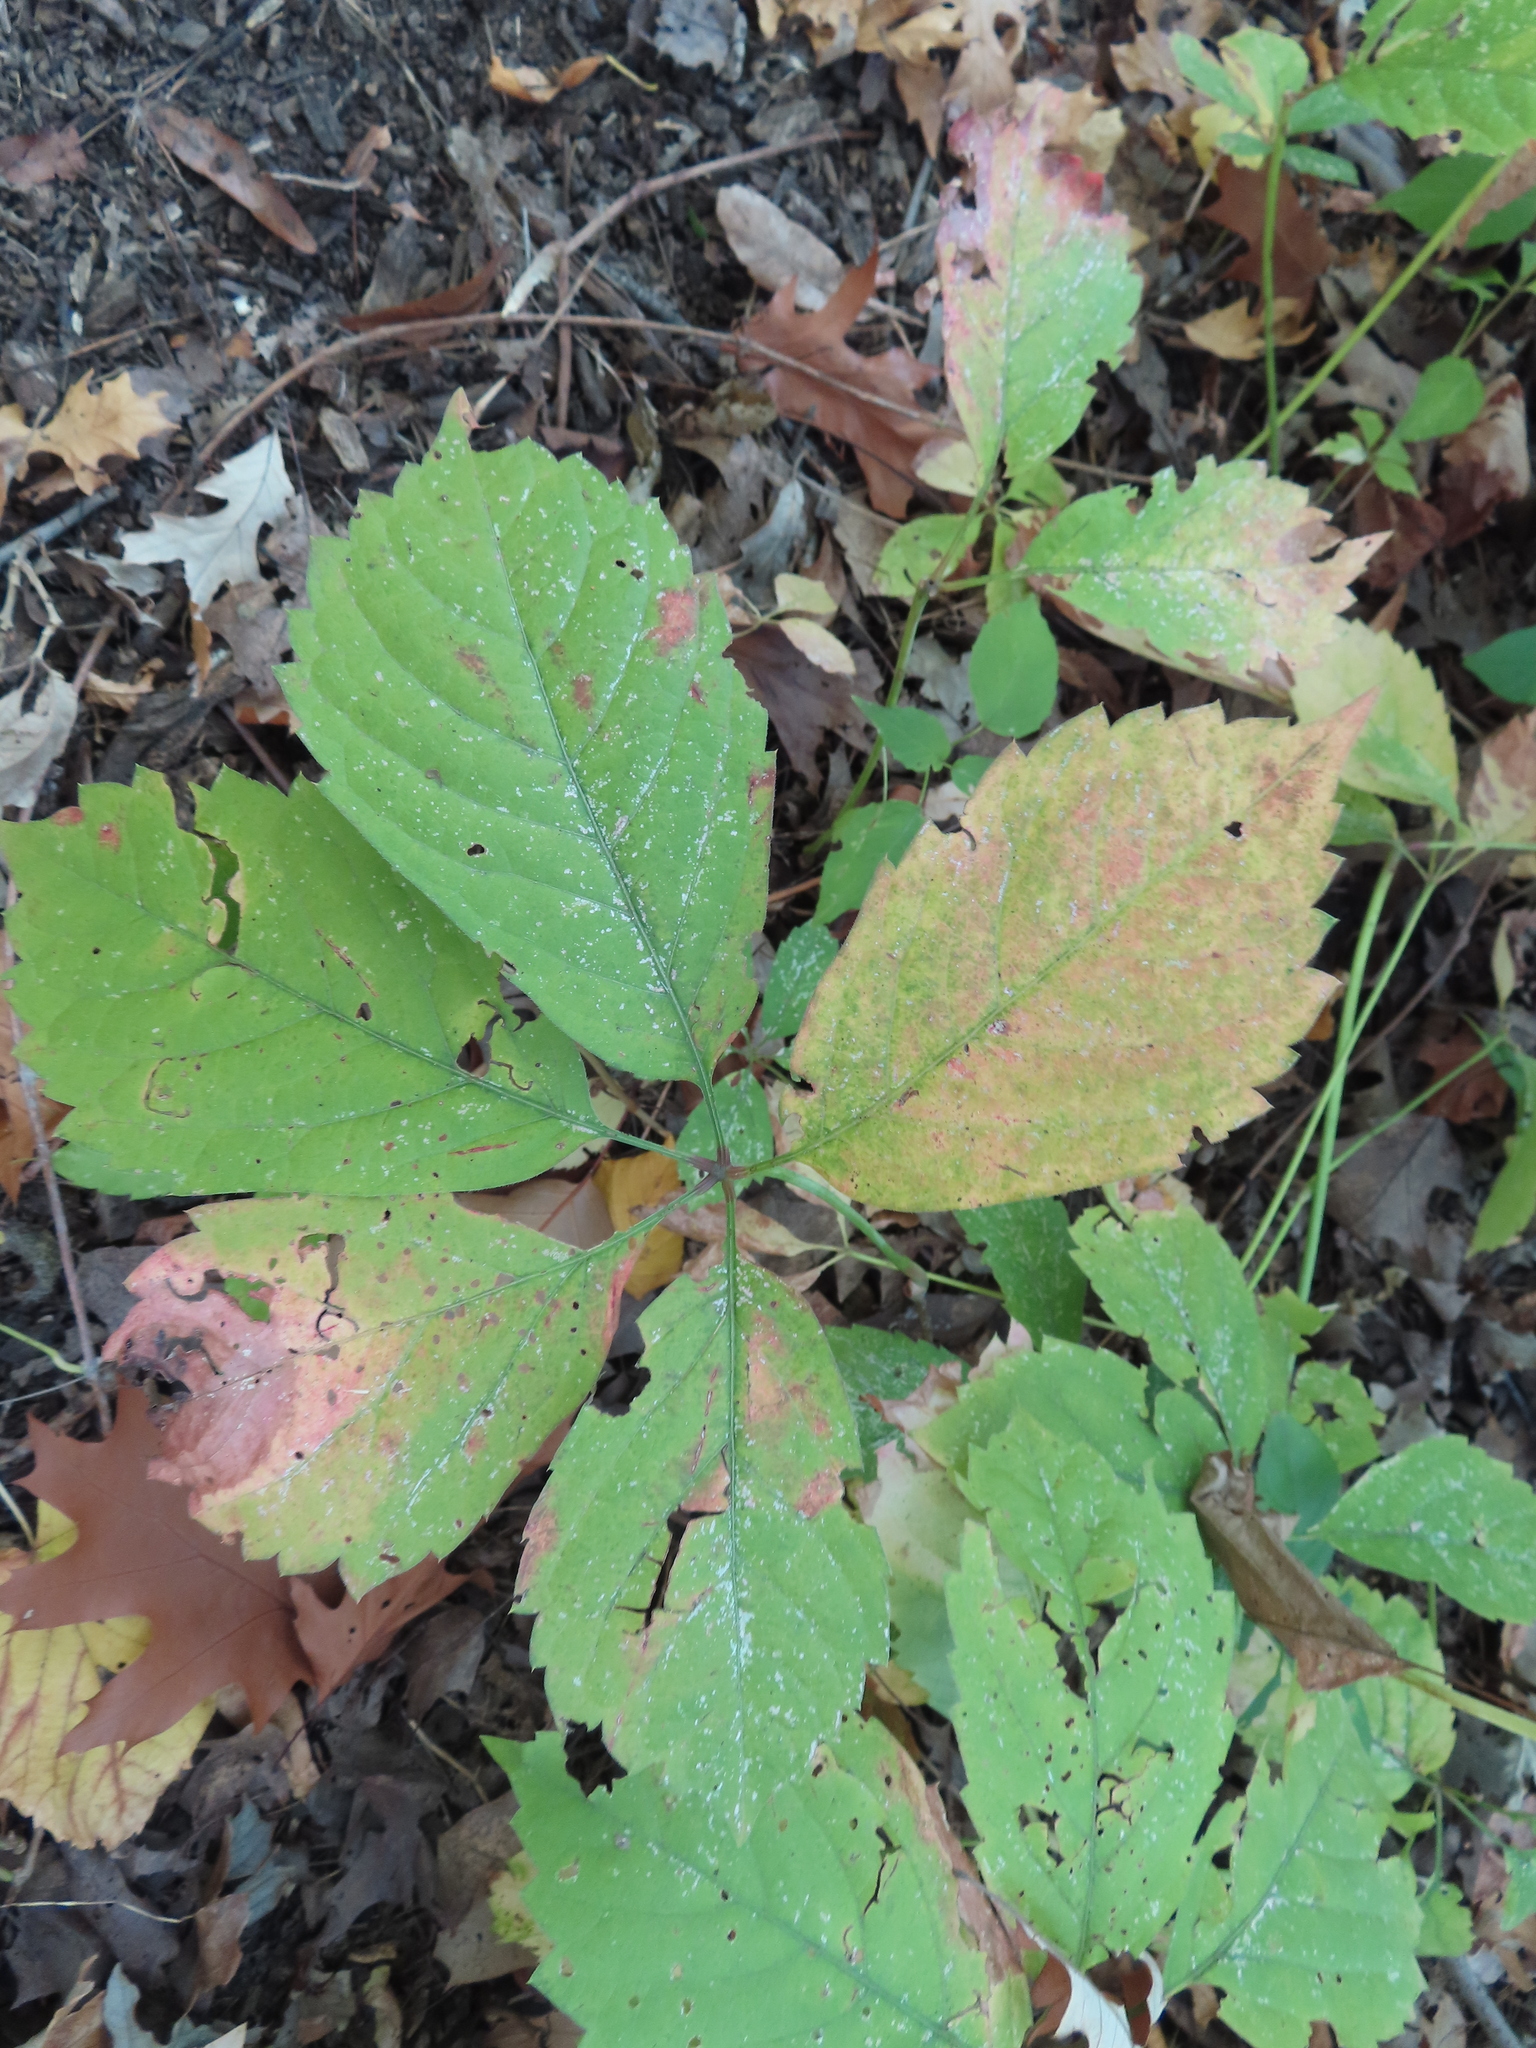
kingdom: Plantae
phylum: Tracheophyta
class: Magnoliopsida
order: Vitales
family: Vitaceae
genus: Parthenocissus
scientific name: Parthenocissus inserta
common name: False virginia-creeper
